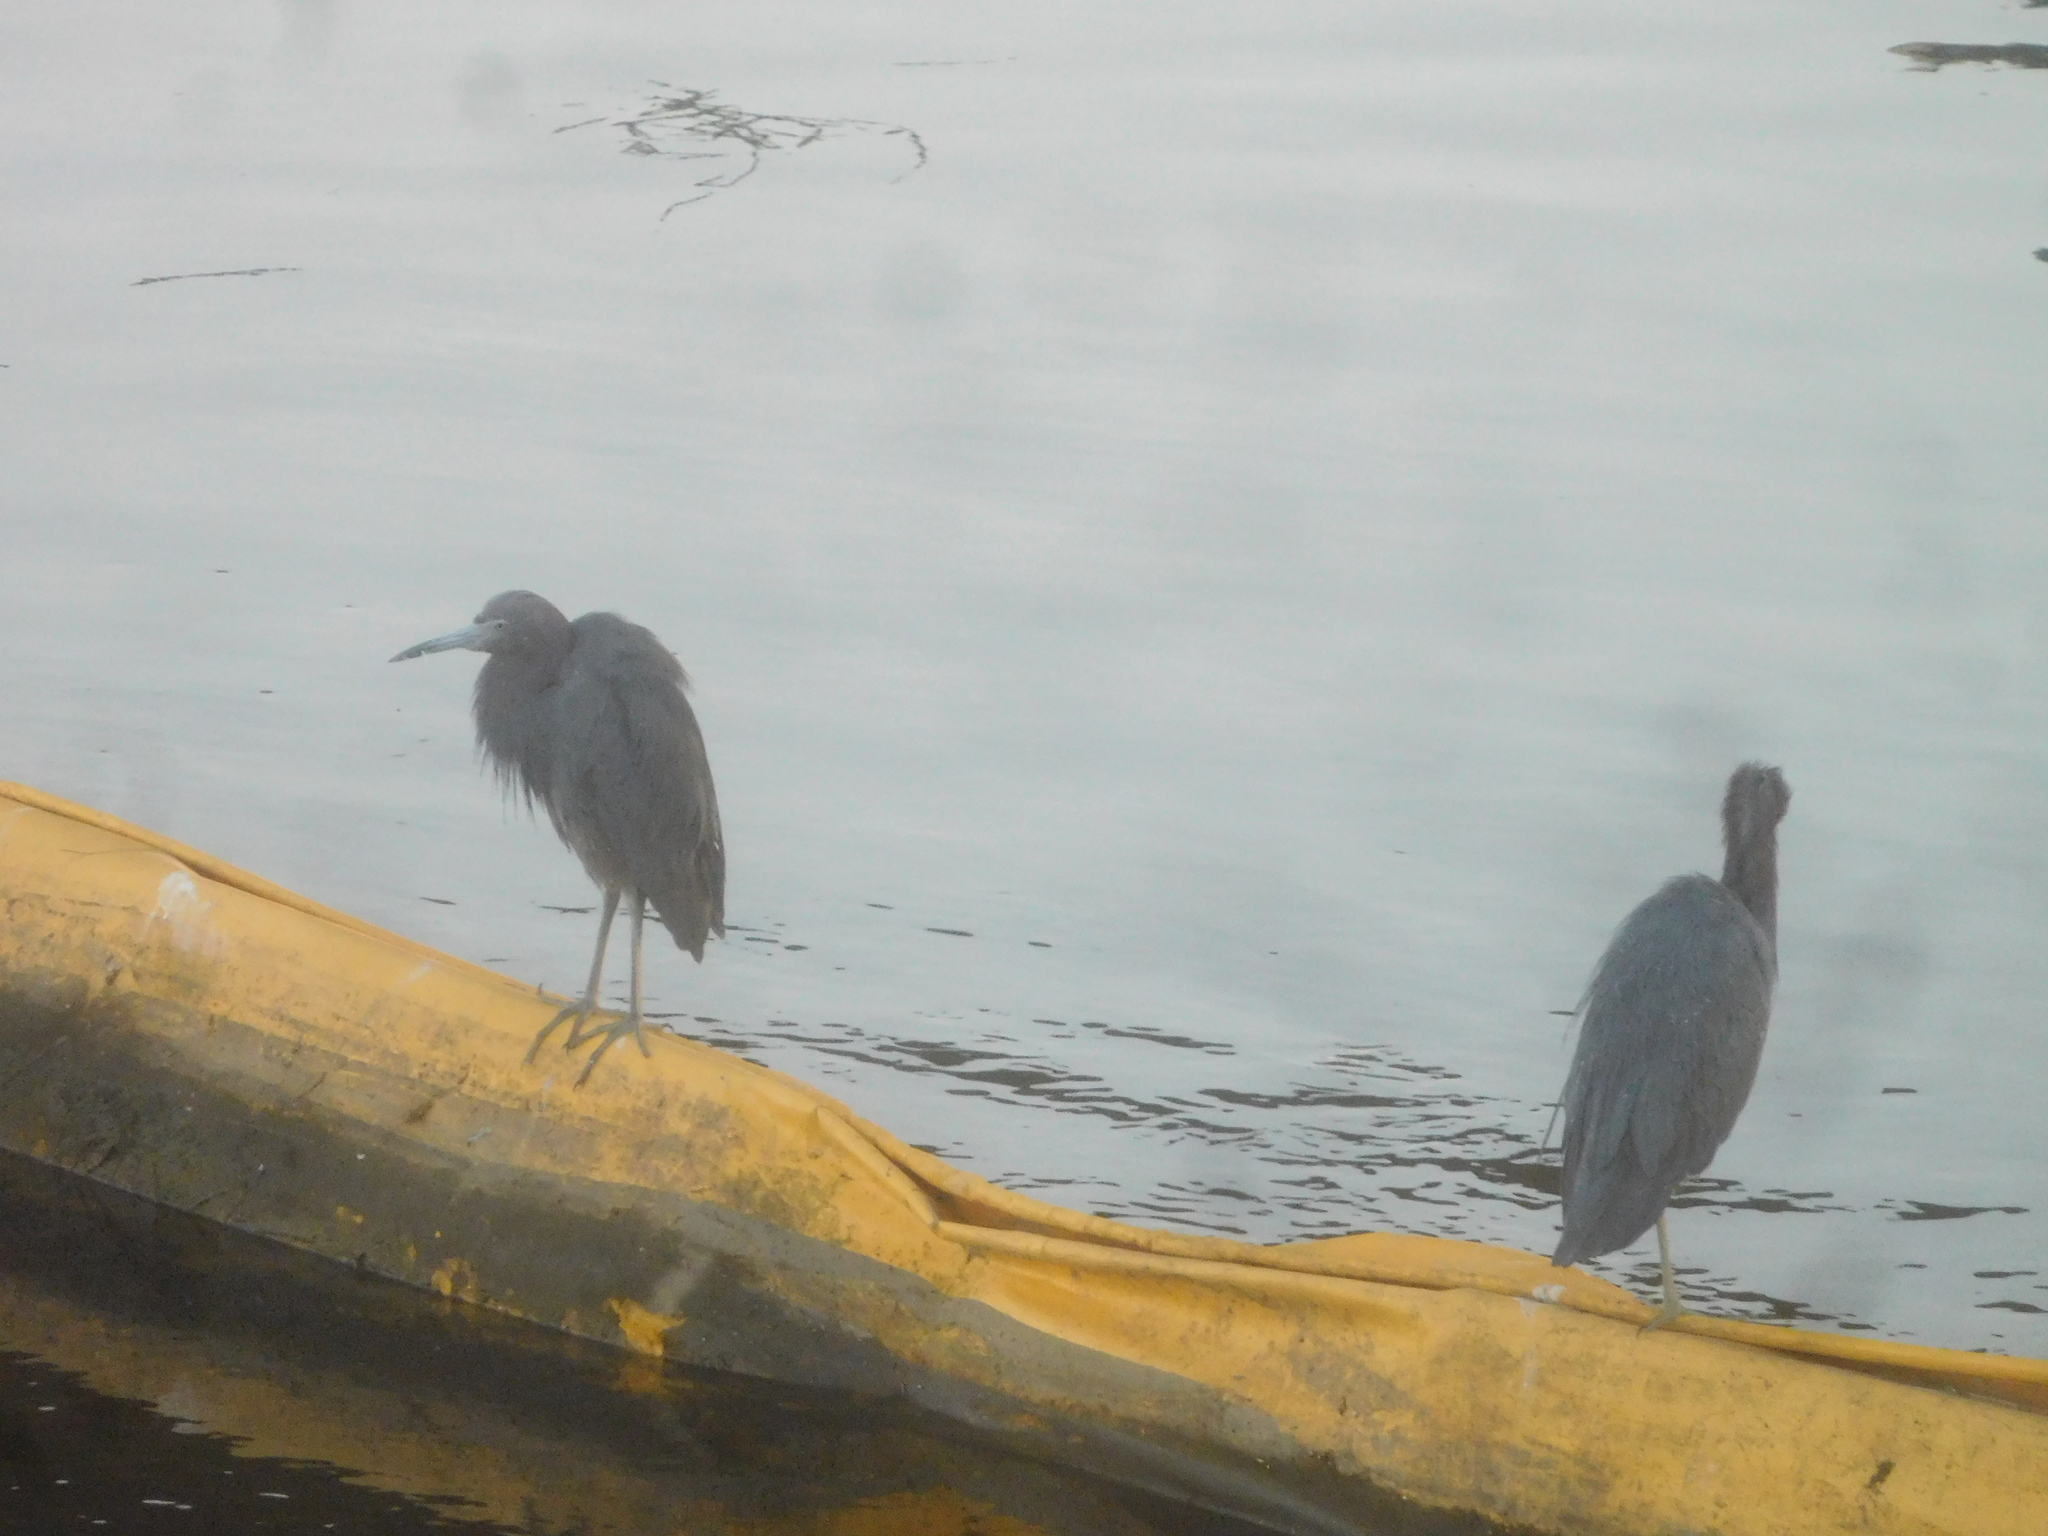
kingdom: Animalia
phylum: Chordata
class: Aves
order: Pelecaniformes
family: Ardeidae
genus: Egretta
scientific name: Egretta caerulea
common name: Little blue heron
